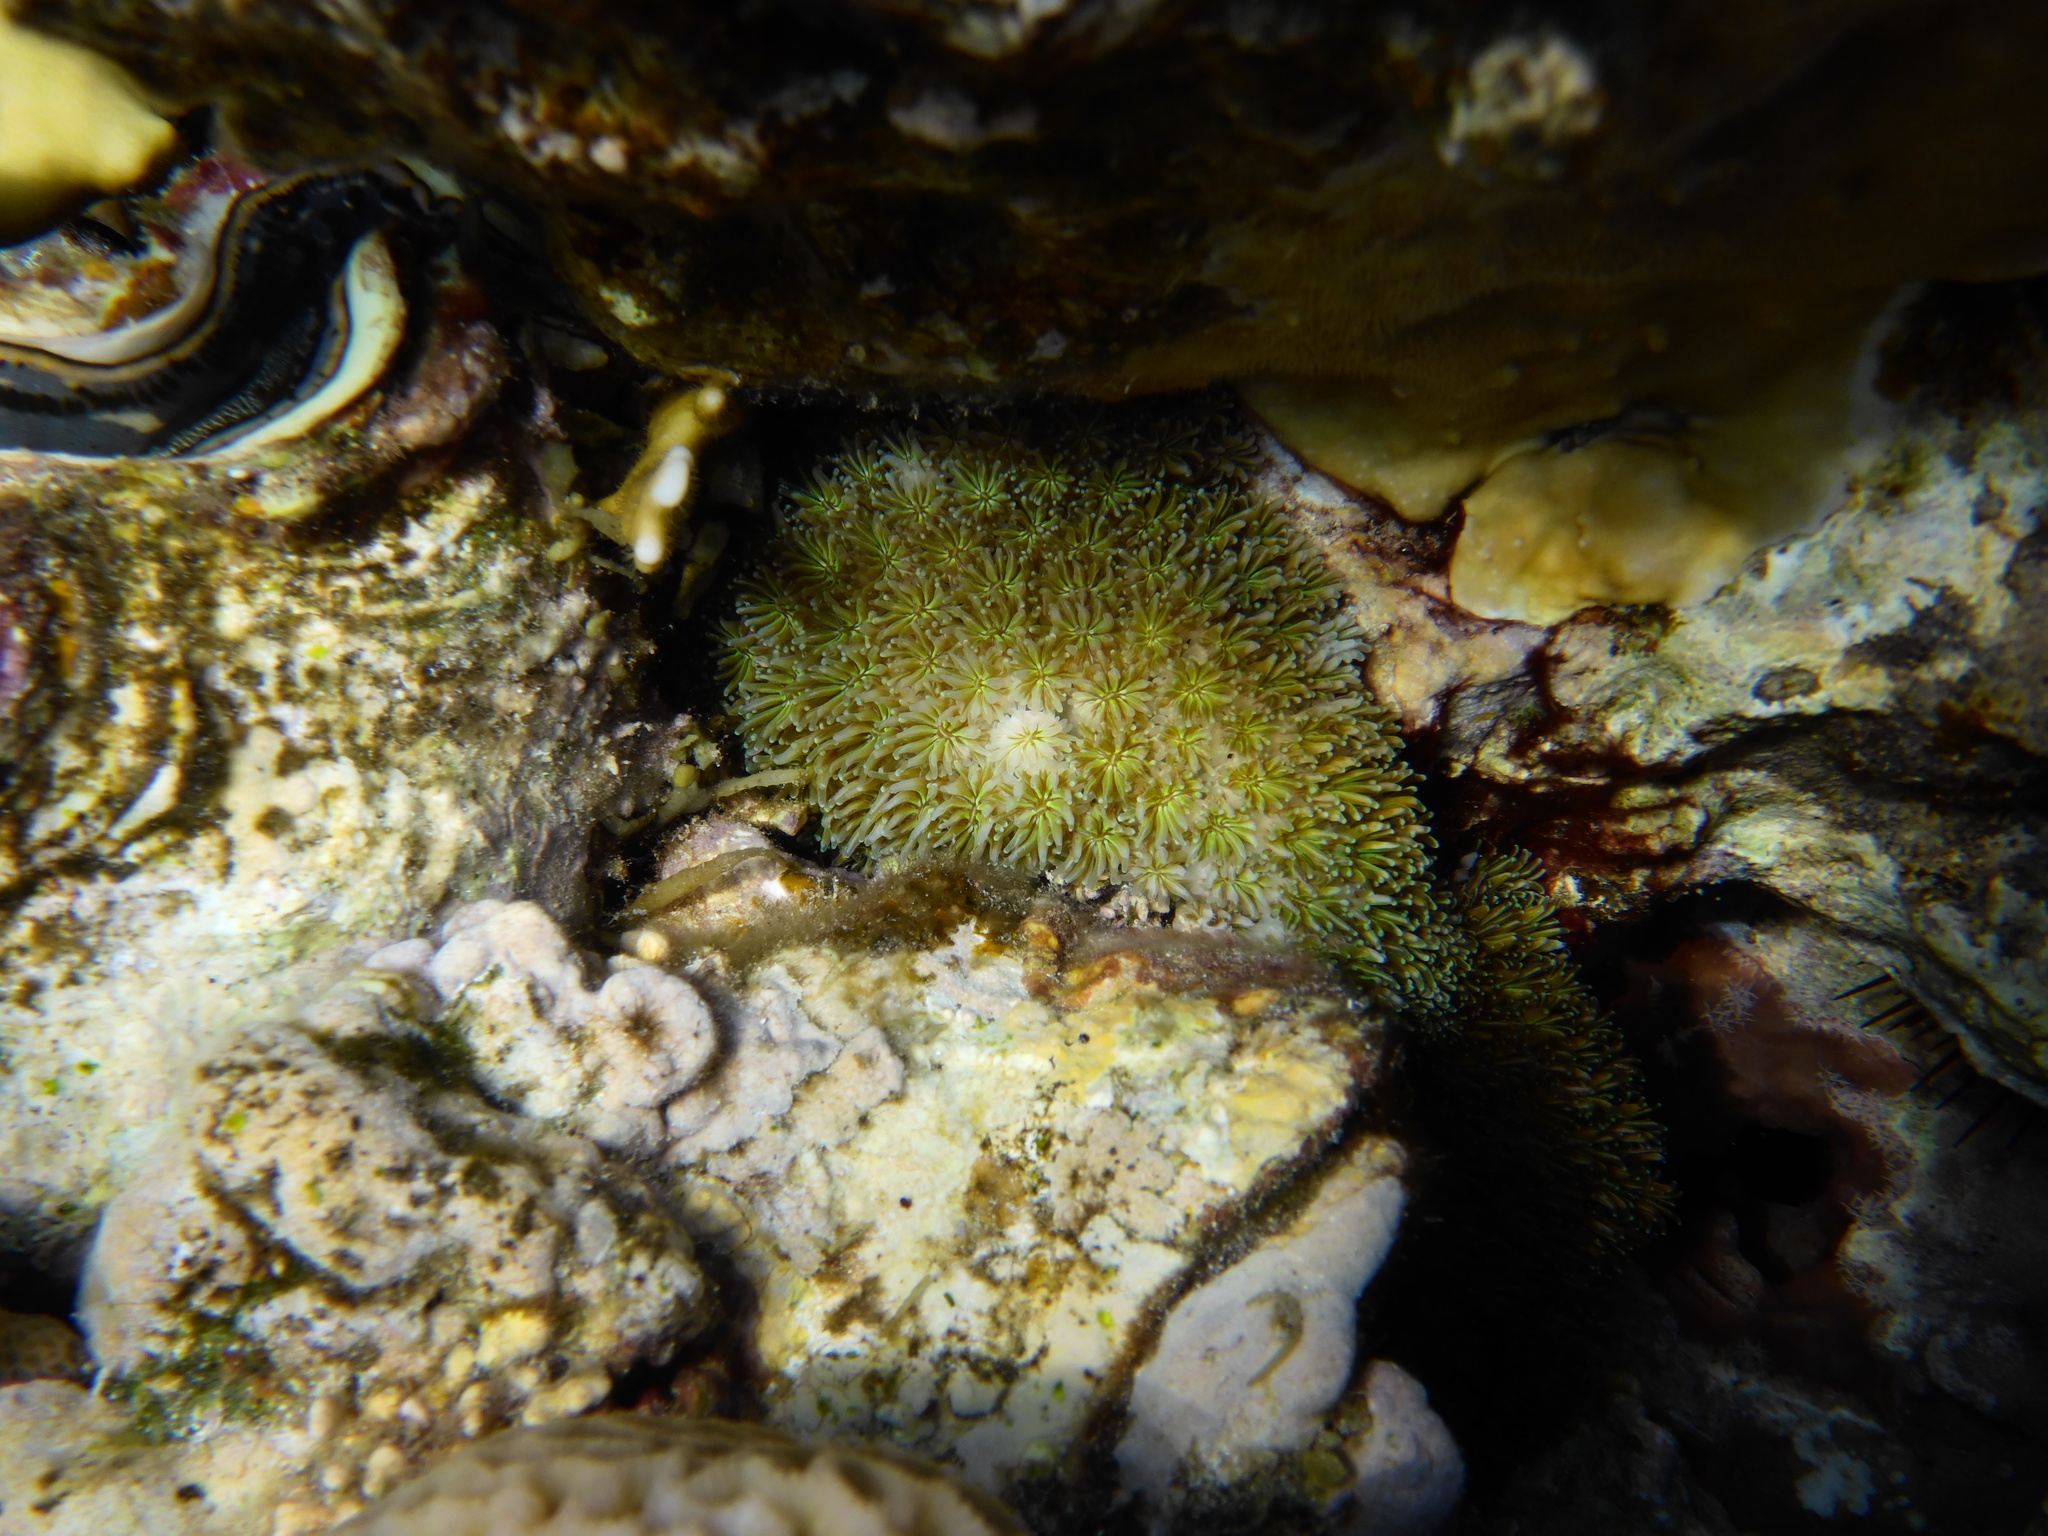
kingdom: Animalia
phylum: Cnidaria
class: Anthozoa
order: Scleractinia
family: Euphylliidae
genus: Galaxea
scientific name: Galaxea fascicularis
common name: Octopus coral
